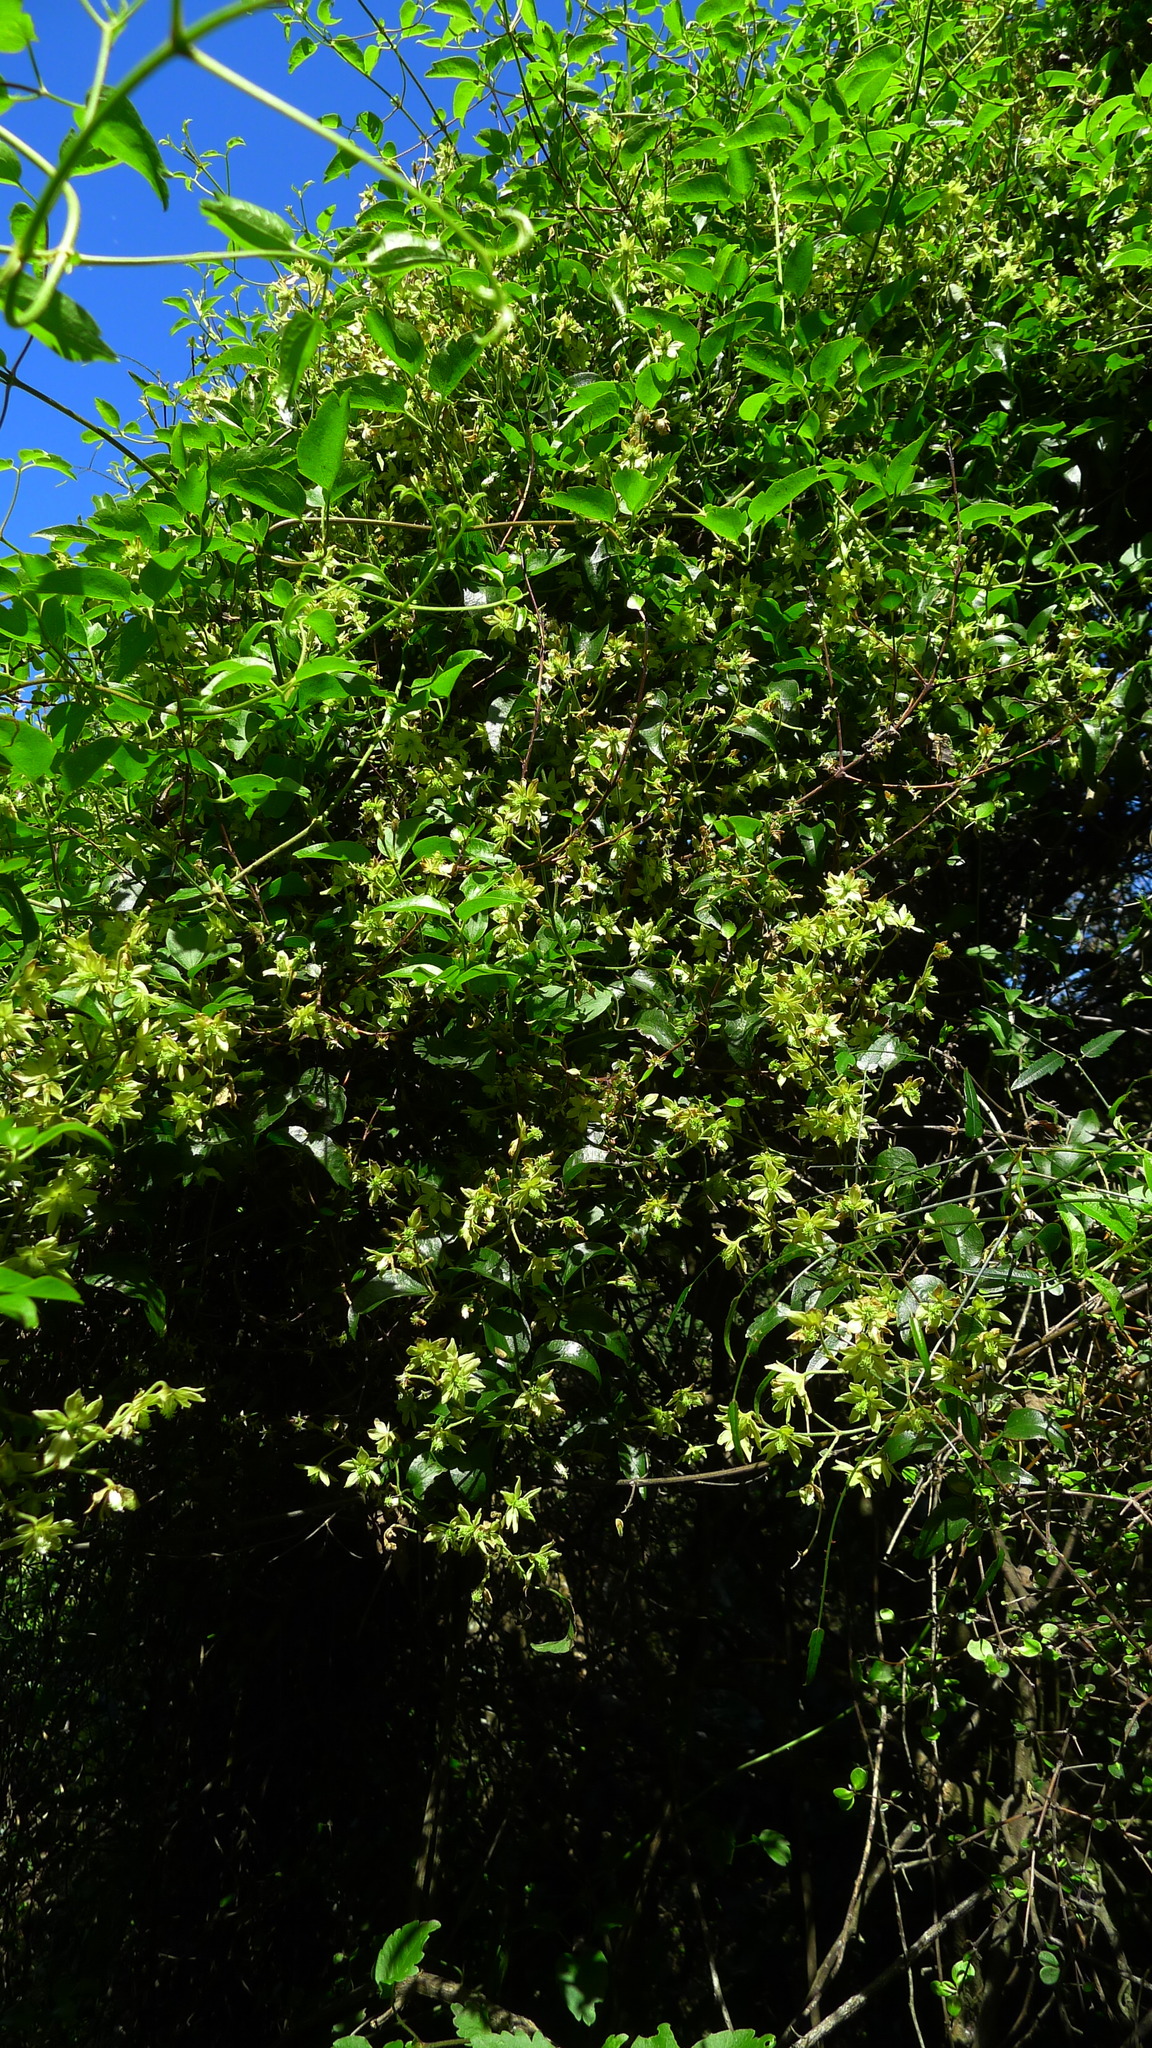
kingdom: Plantae
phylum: Tracheophyta
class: Magnoliopsida
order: Ranunculales
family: Ranunculaceae
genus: Clematis
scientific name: Clematis foetida
